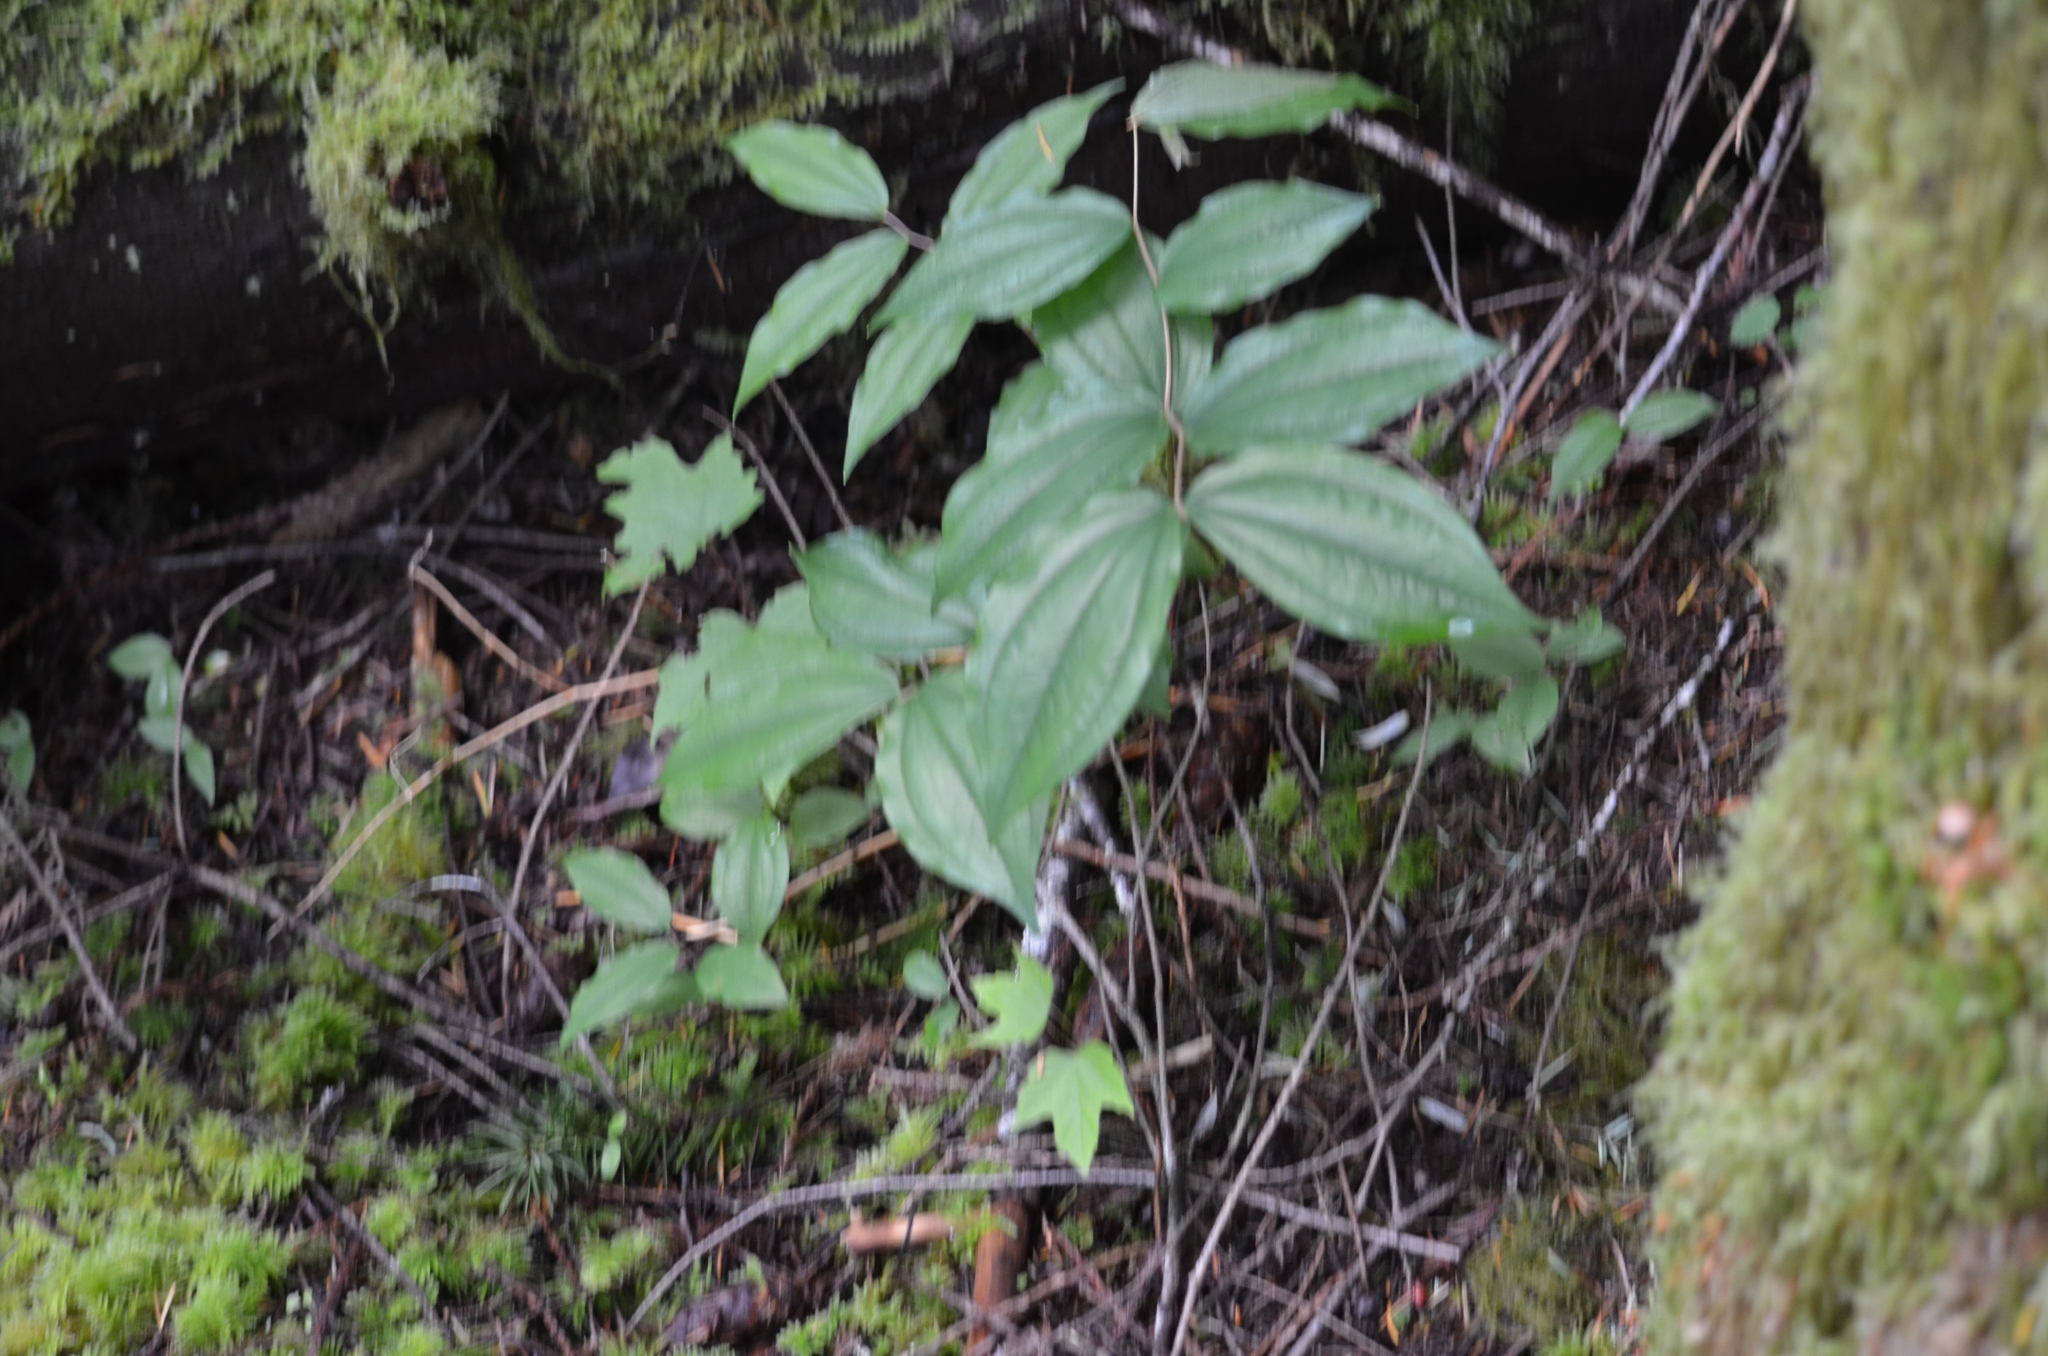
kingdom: Plantae
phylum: Tracheophyta
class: Liliopsida
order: Liliales
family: Liliaceae
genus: Prosartes
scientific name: Prosartes smithii
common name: Fairy-lantern
